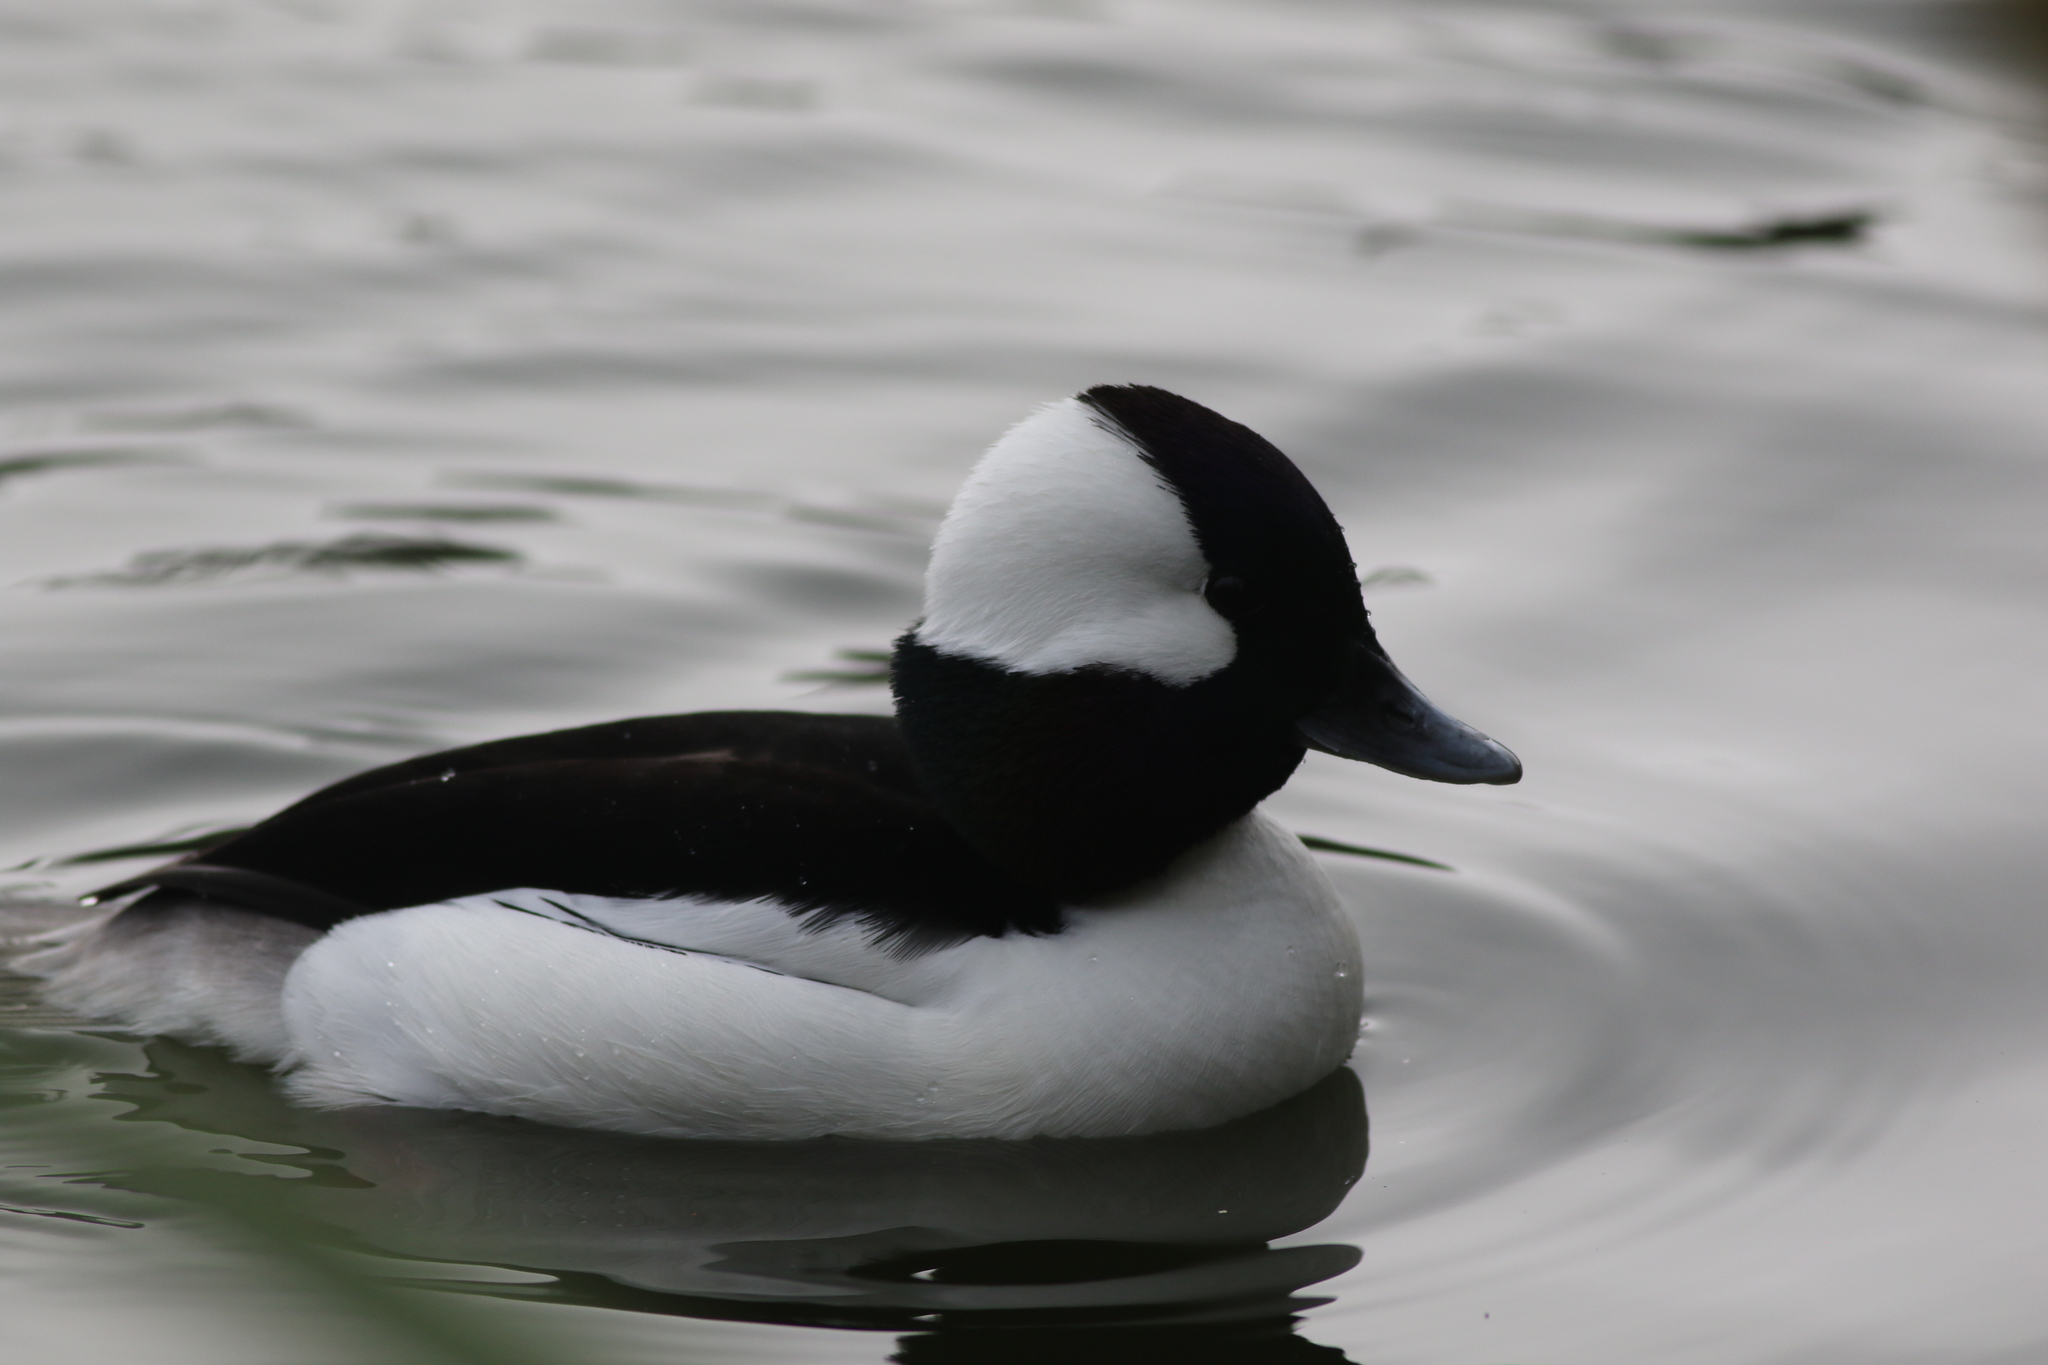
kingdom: Animalia
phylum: Chordata
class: Aves
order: Anseriformes
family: Anatidae
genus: Bucephala
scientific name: Bucephala albeola
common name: Bufflehead
